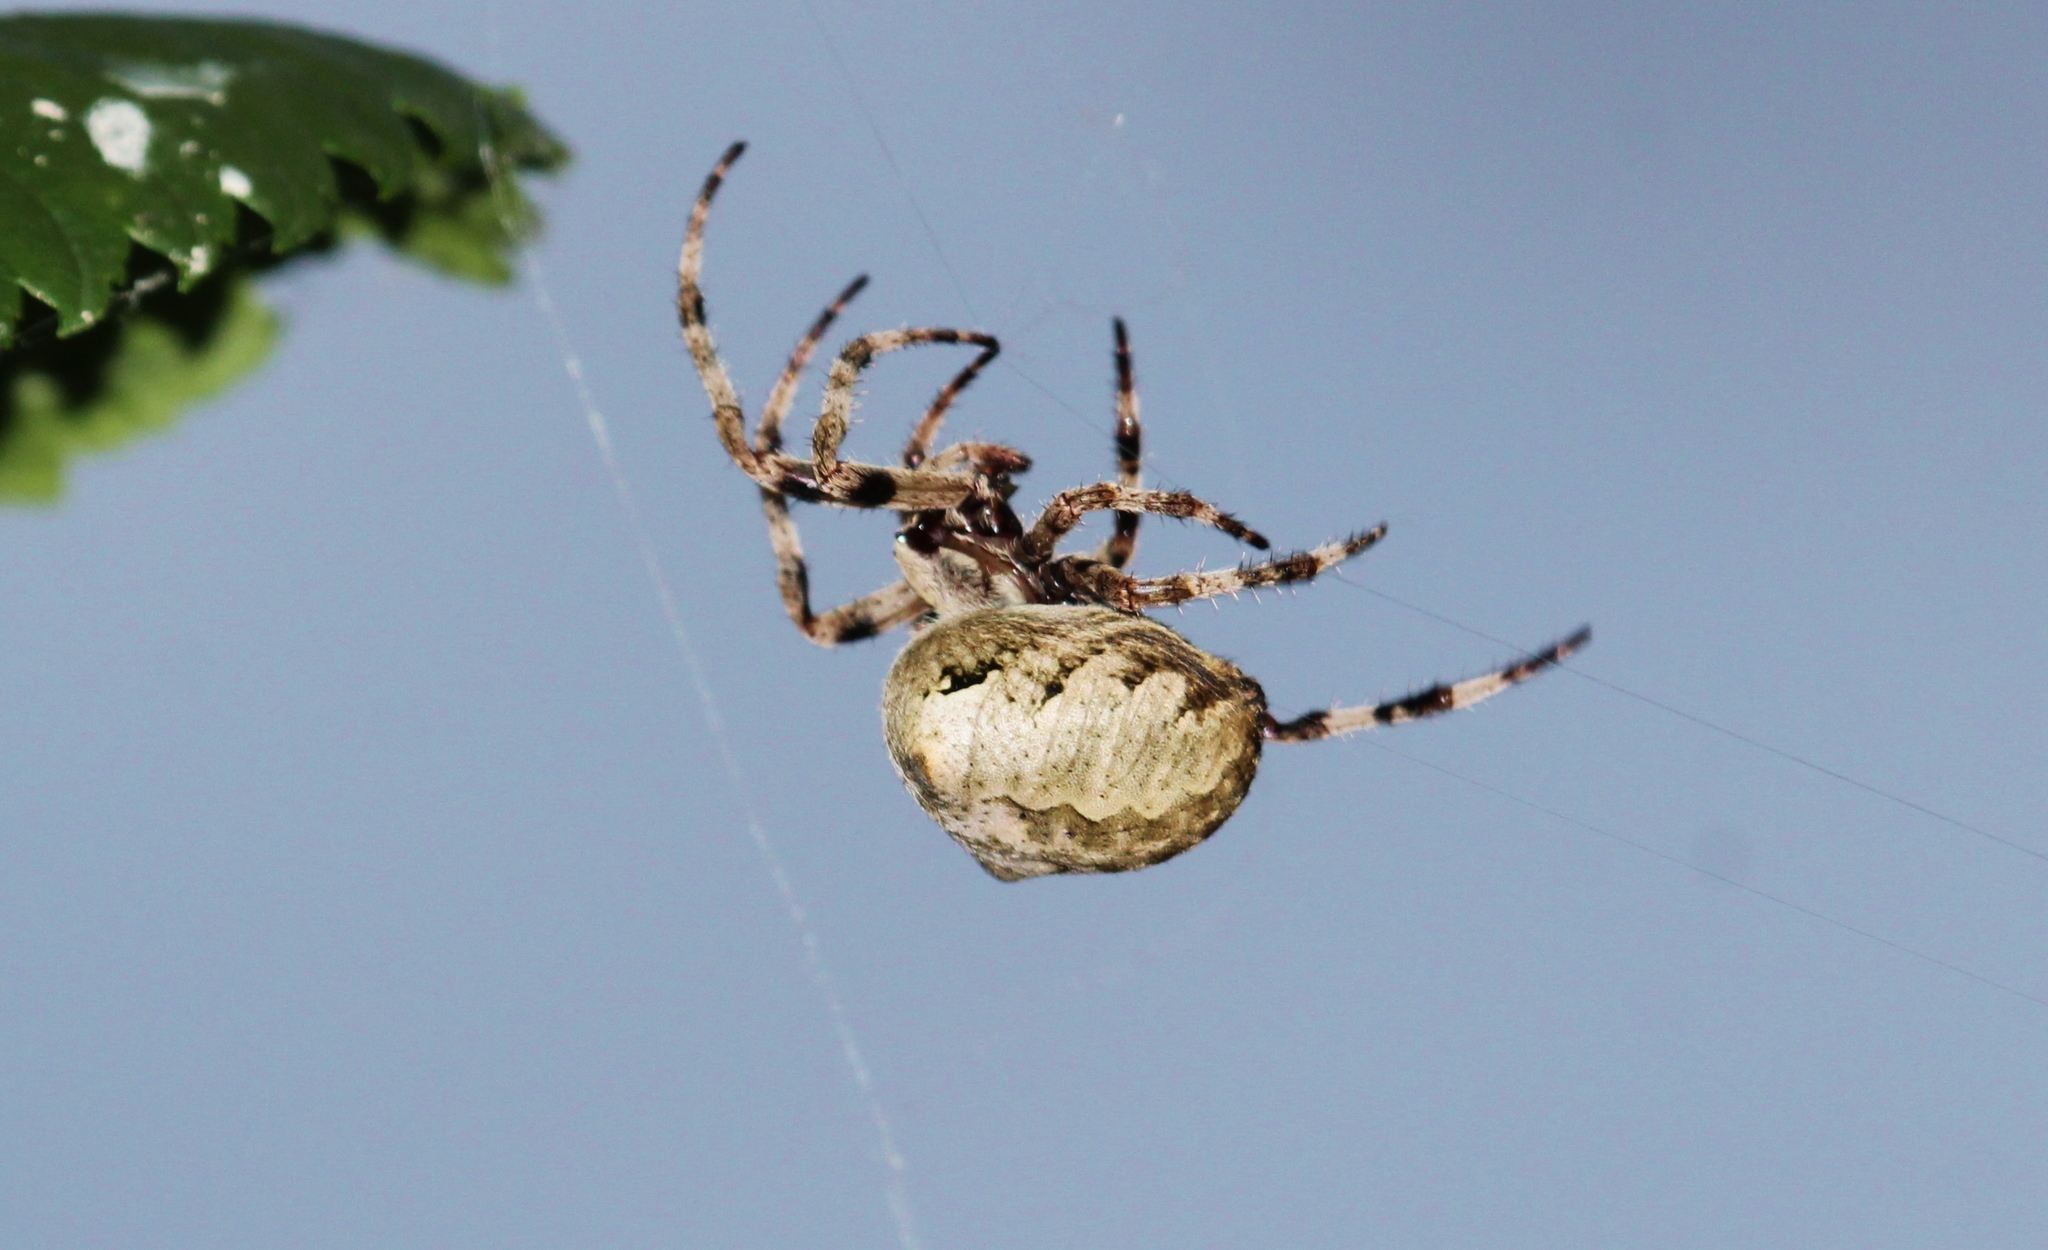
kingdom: Animalia
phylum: Arthropoda
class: Arachnida
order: Araneae
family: Araneidae
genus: Araneus
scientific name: Araneus angulatus
